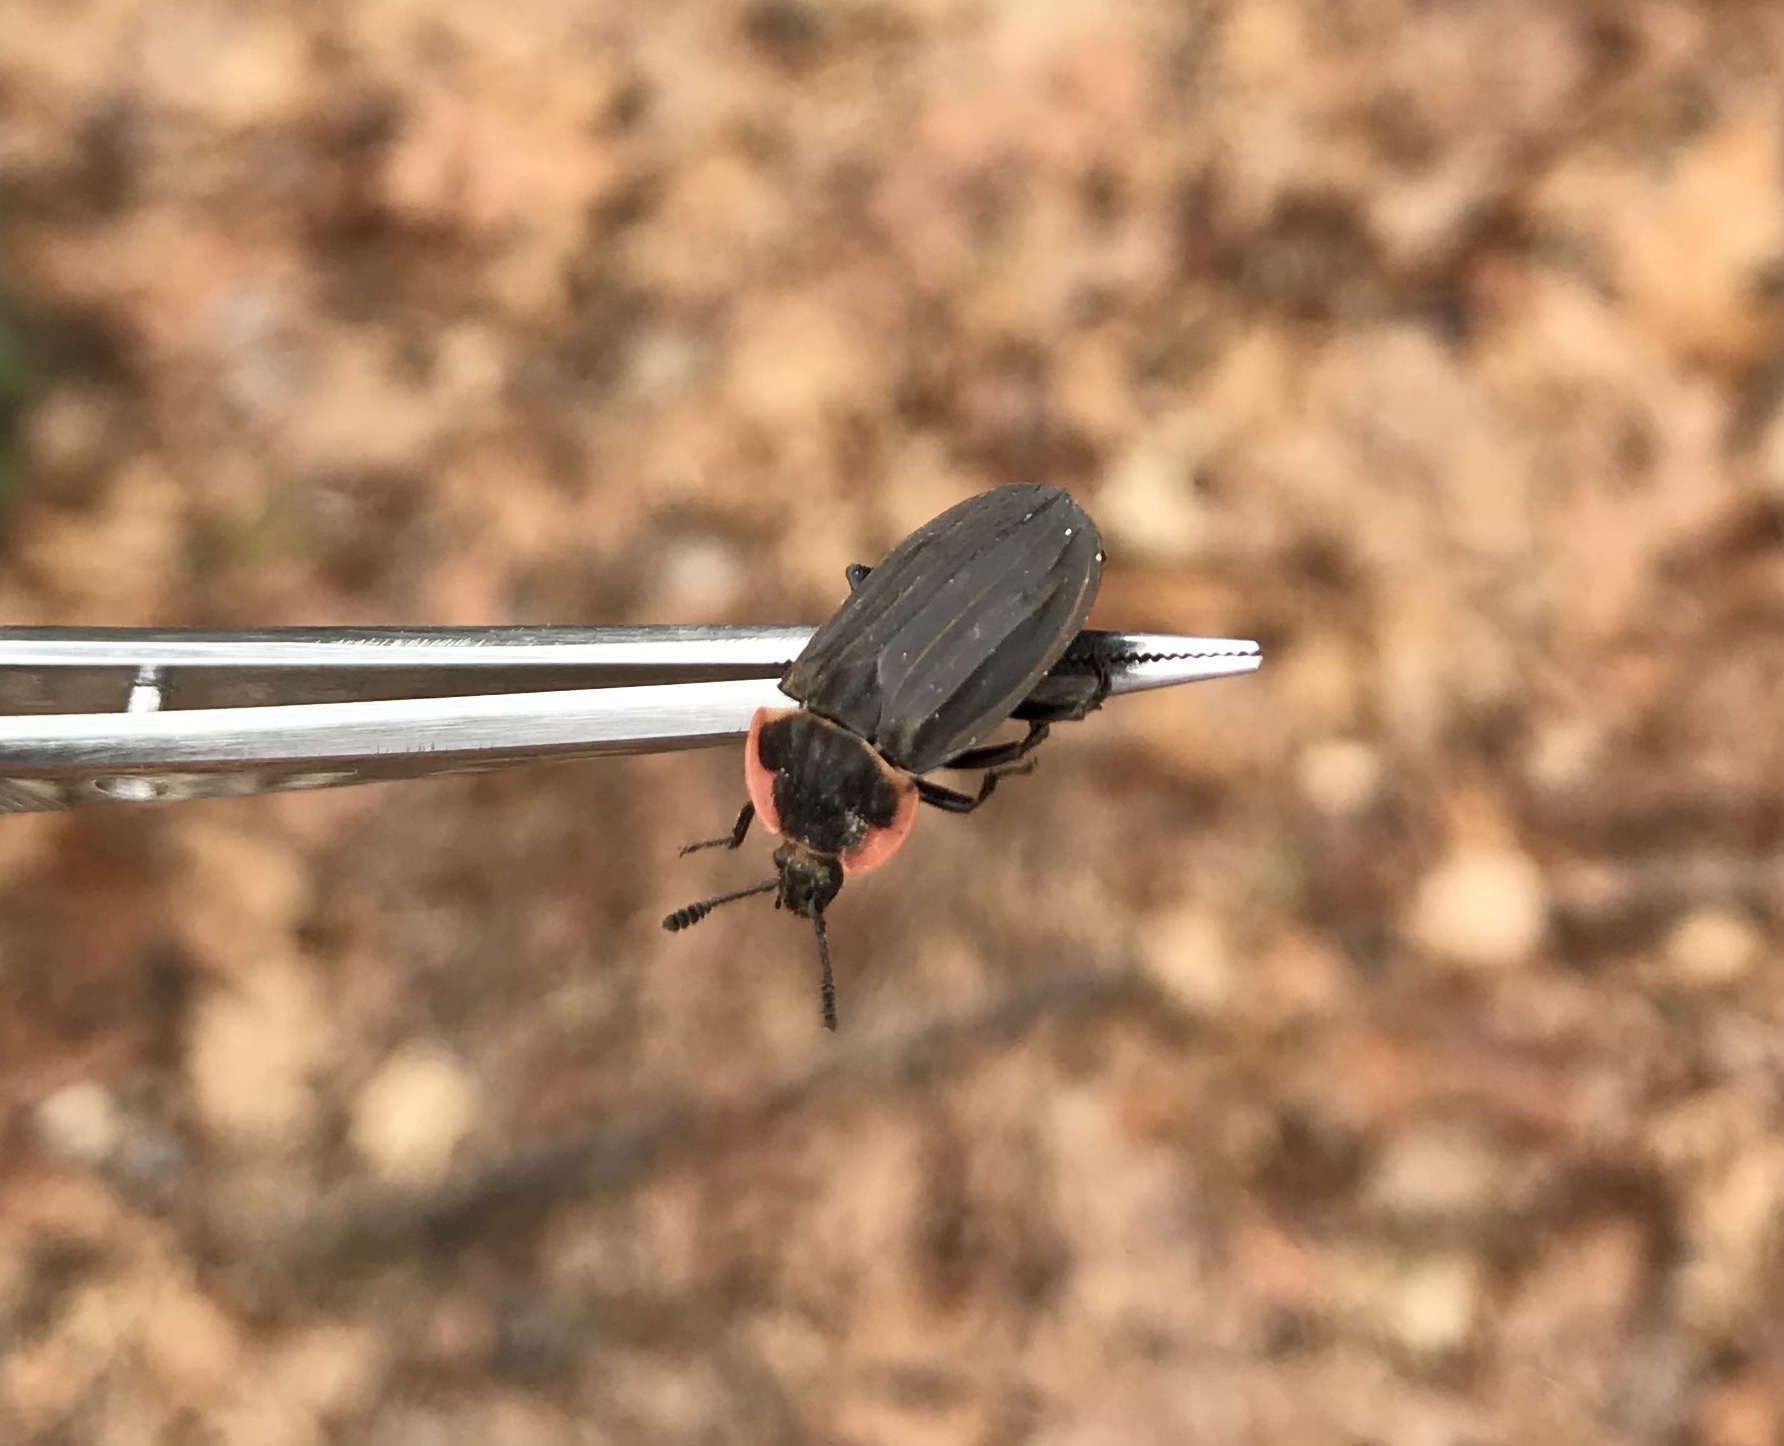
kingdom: Animalia
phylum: Arthropoda
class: Insecta
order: Coleoptera
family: Staphylinidae
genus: Oiceoptoma
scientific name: Oiceoptoma noveboracense
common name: Margined carrion beetle
